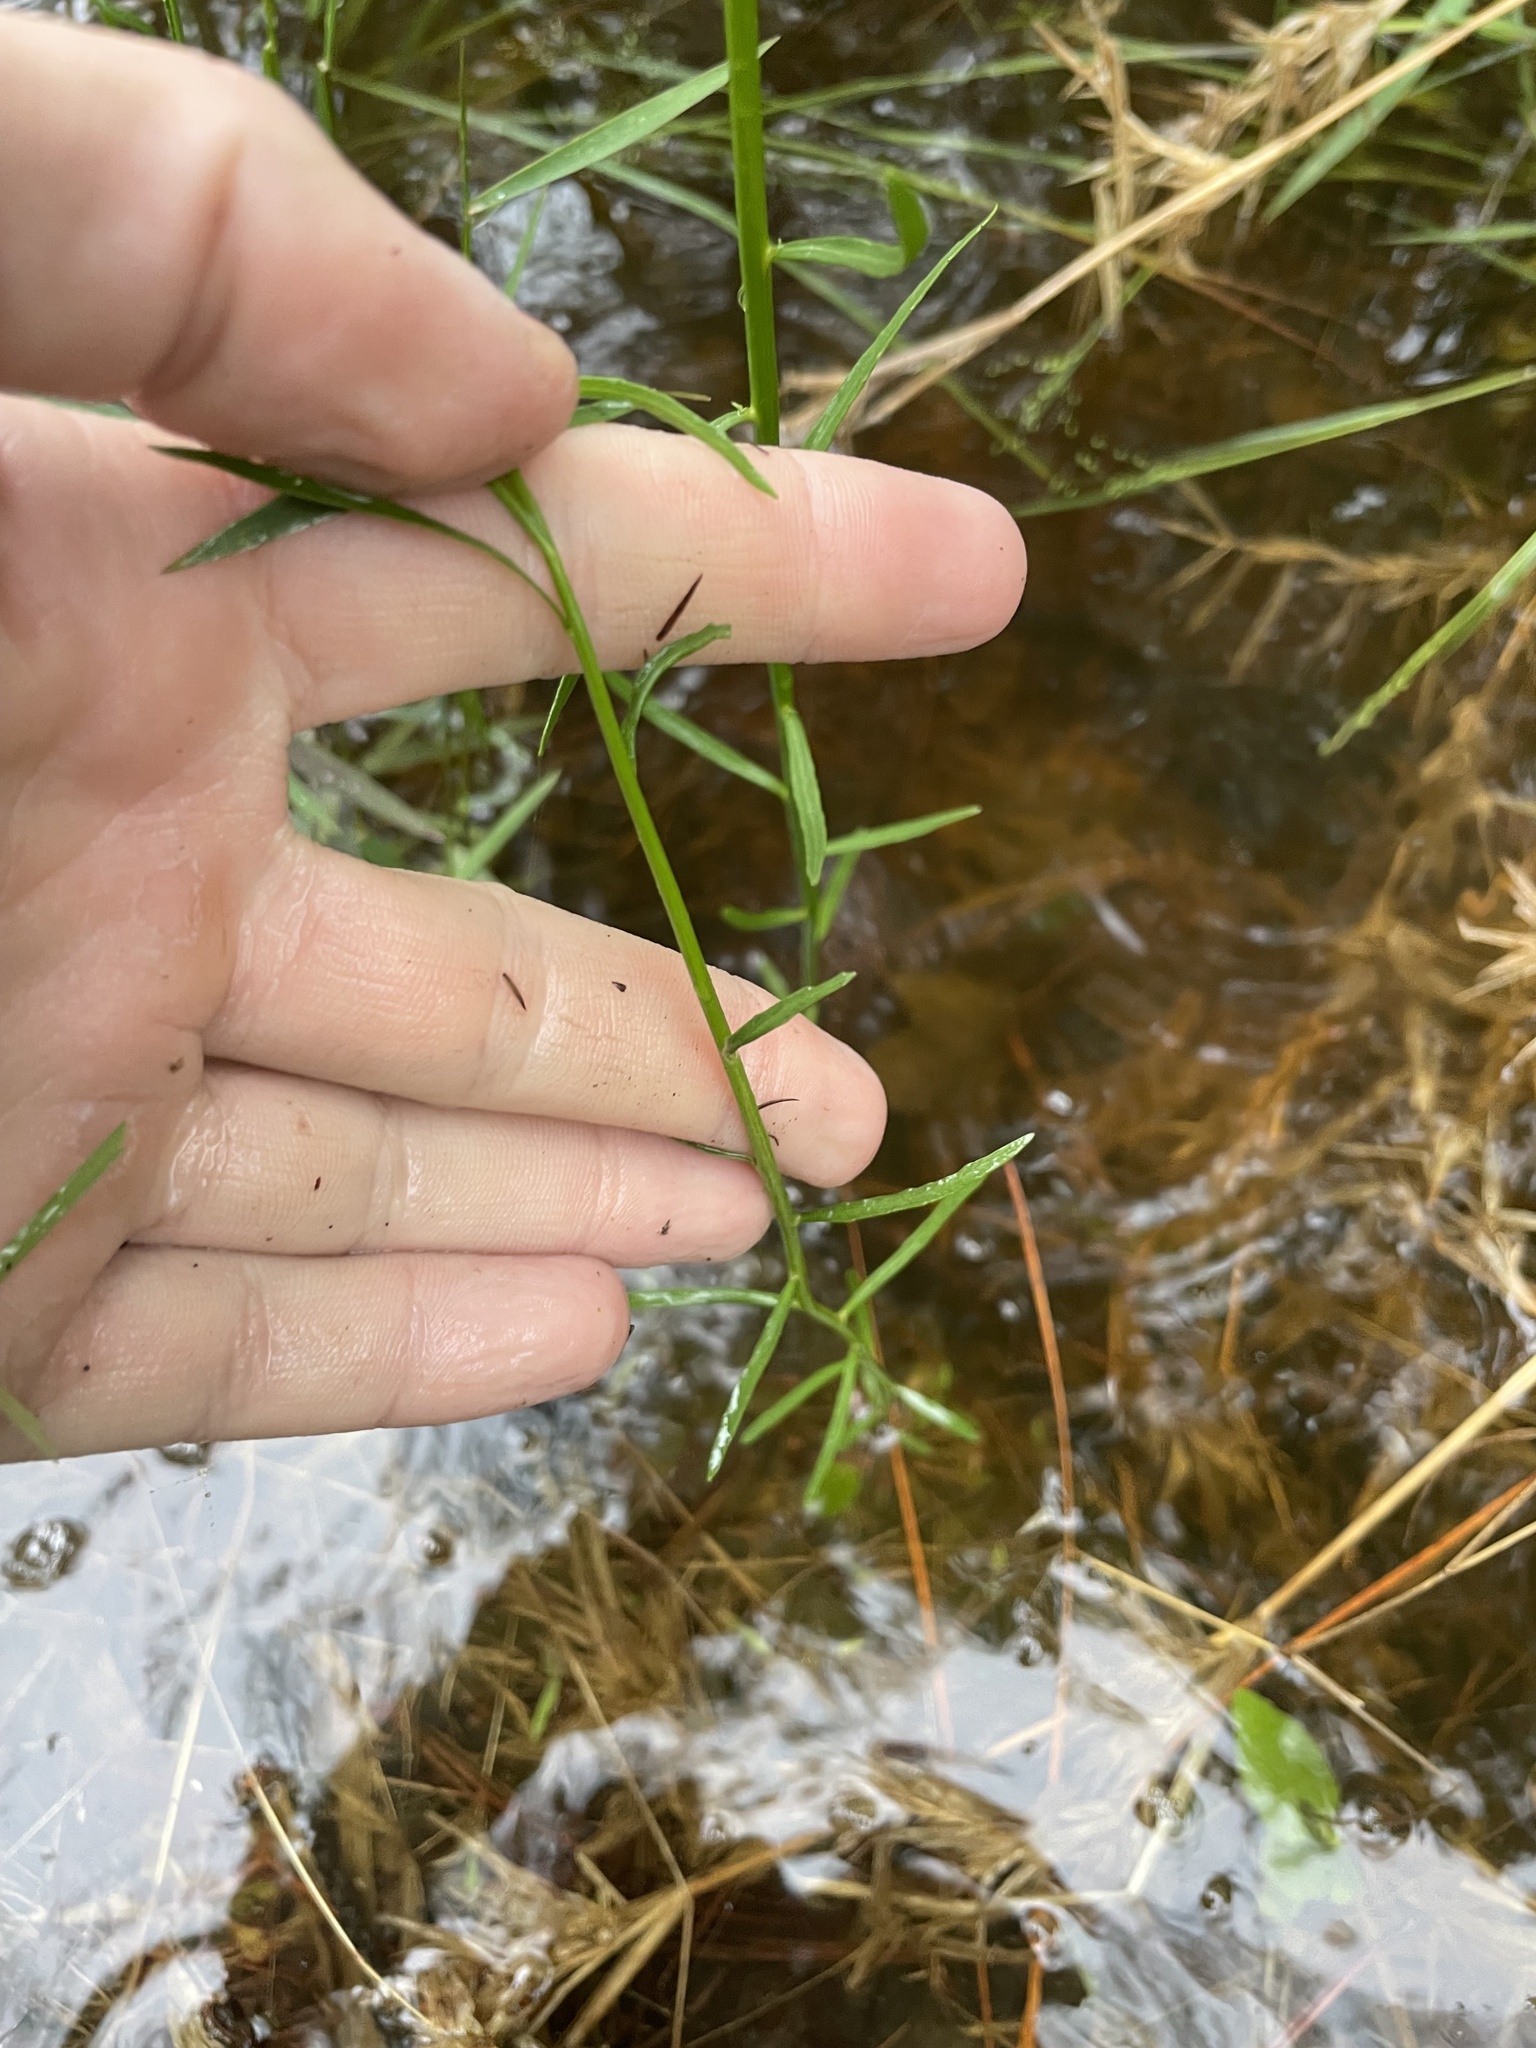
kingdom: Plantae
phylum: Tracheophyta
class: Magnoliopsida
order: Asterales
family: Campanulaceae
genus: Lobelia
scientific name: Lobelia canbyi
